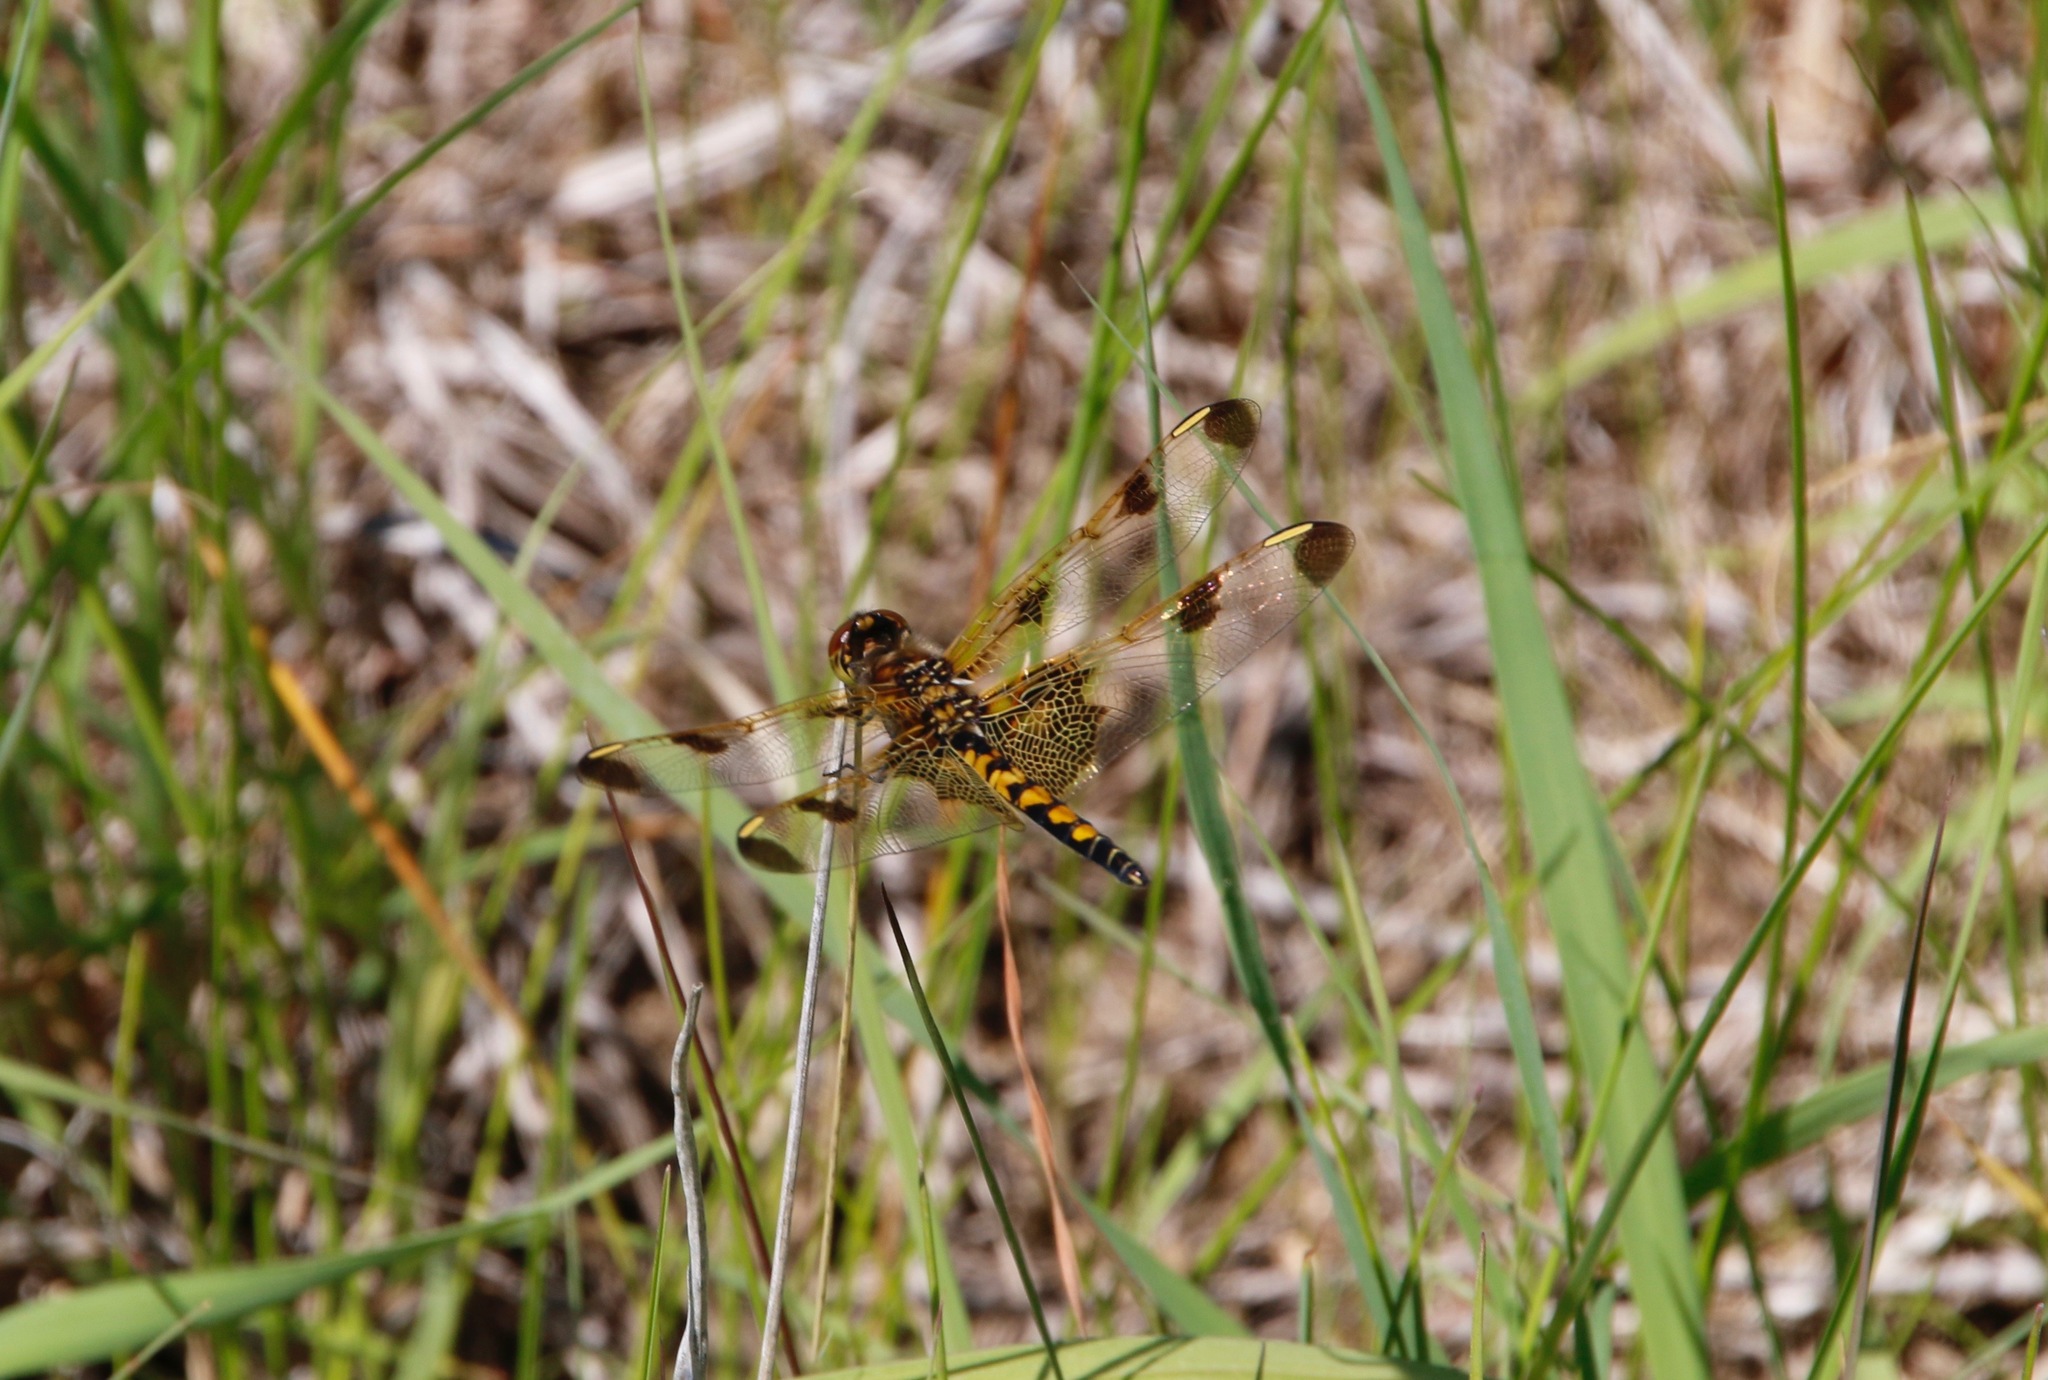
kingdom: Animalia
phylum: Arthropoda
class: Insecta
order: Odonata
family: Libellulidae
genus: Celithemis
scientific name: Celithemis elisa
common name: Calico pennant
